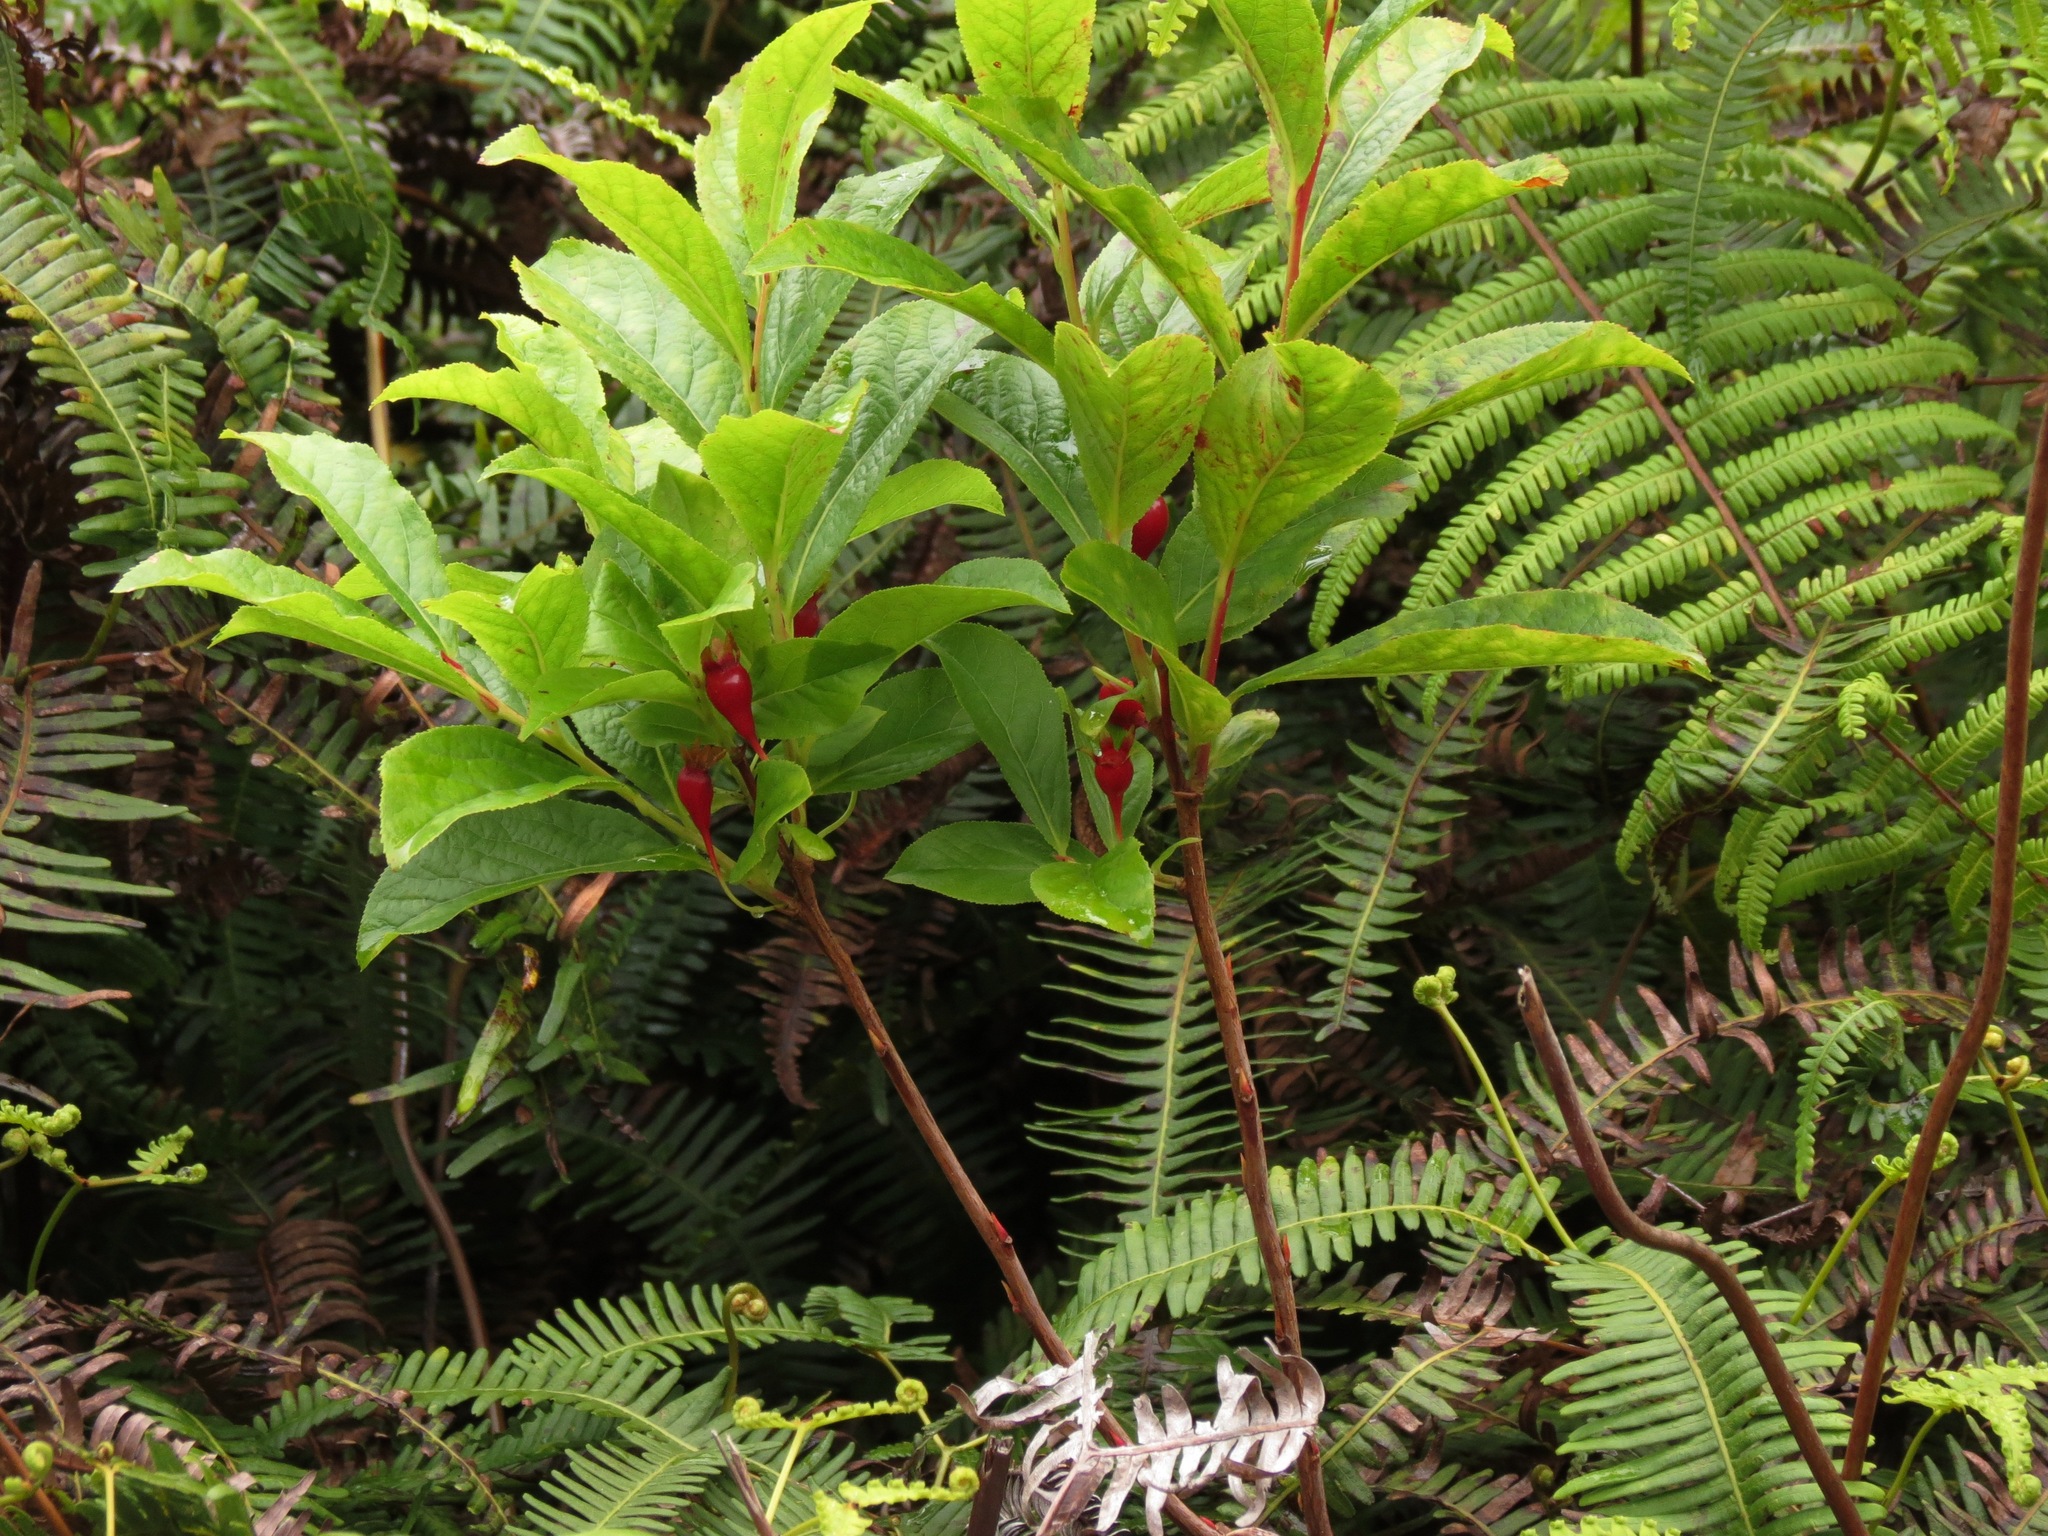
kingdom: Plantae
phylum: Tracheophyta
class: Magnoliopsida
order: Ericales
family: Ericaceae
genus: Vaccinium
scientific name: Vaccinium calycinum
